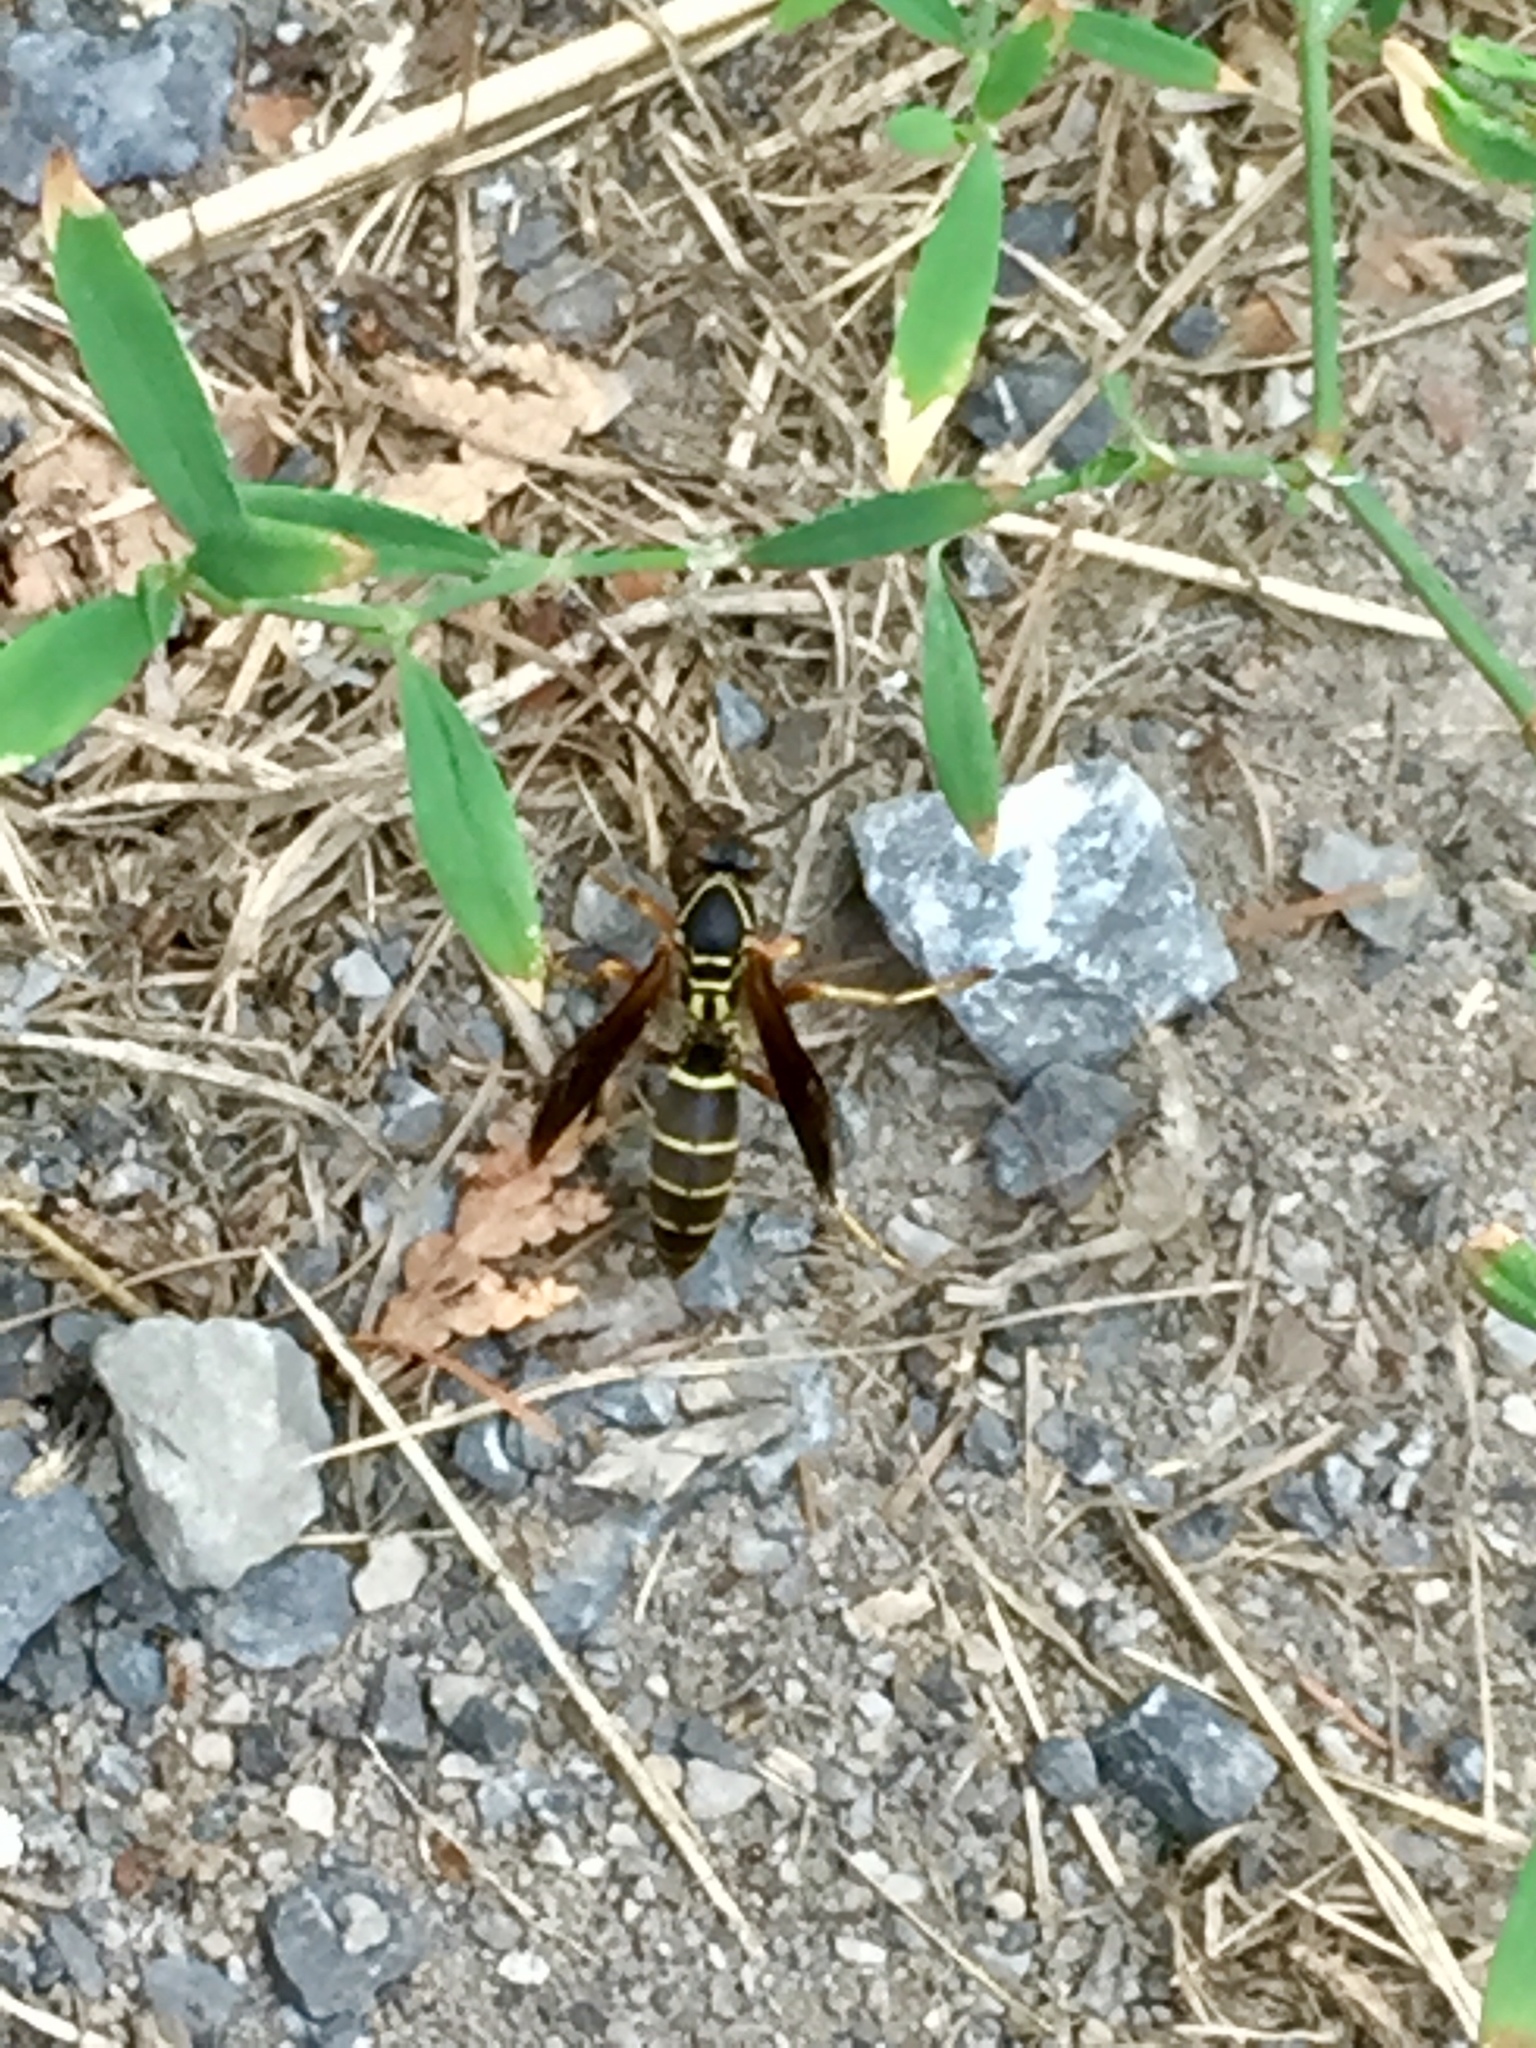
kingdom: Animalia
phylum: Arthropoda
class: Insecta
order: Hymenoptera
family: Eumenidae
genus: Polistes
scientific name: Polistes fuscatus
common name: Dark paper wasp
